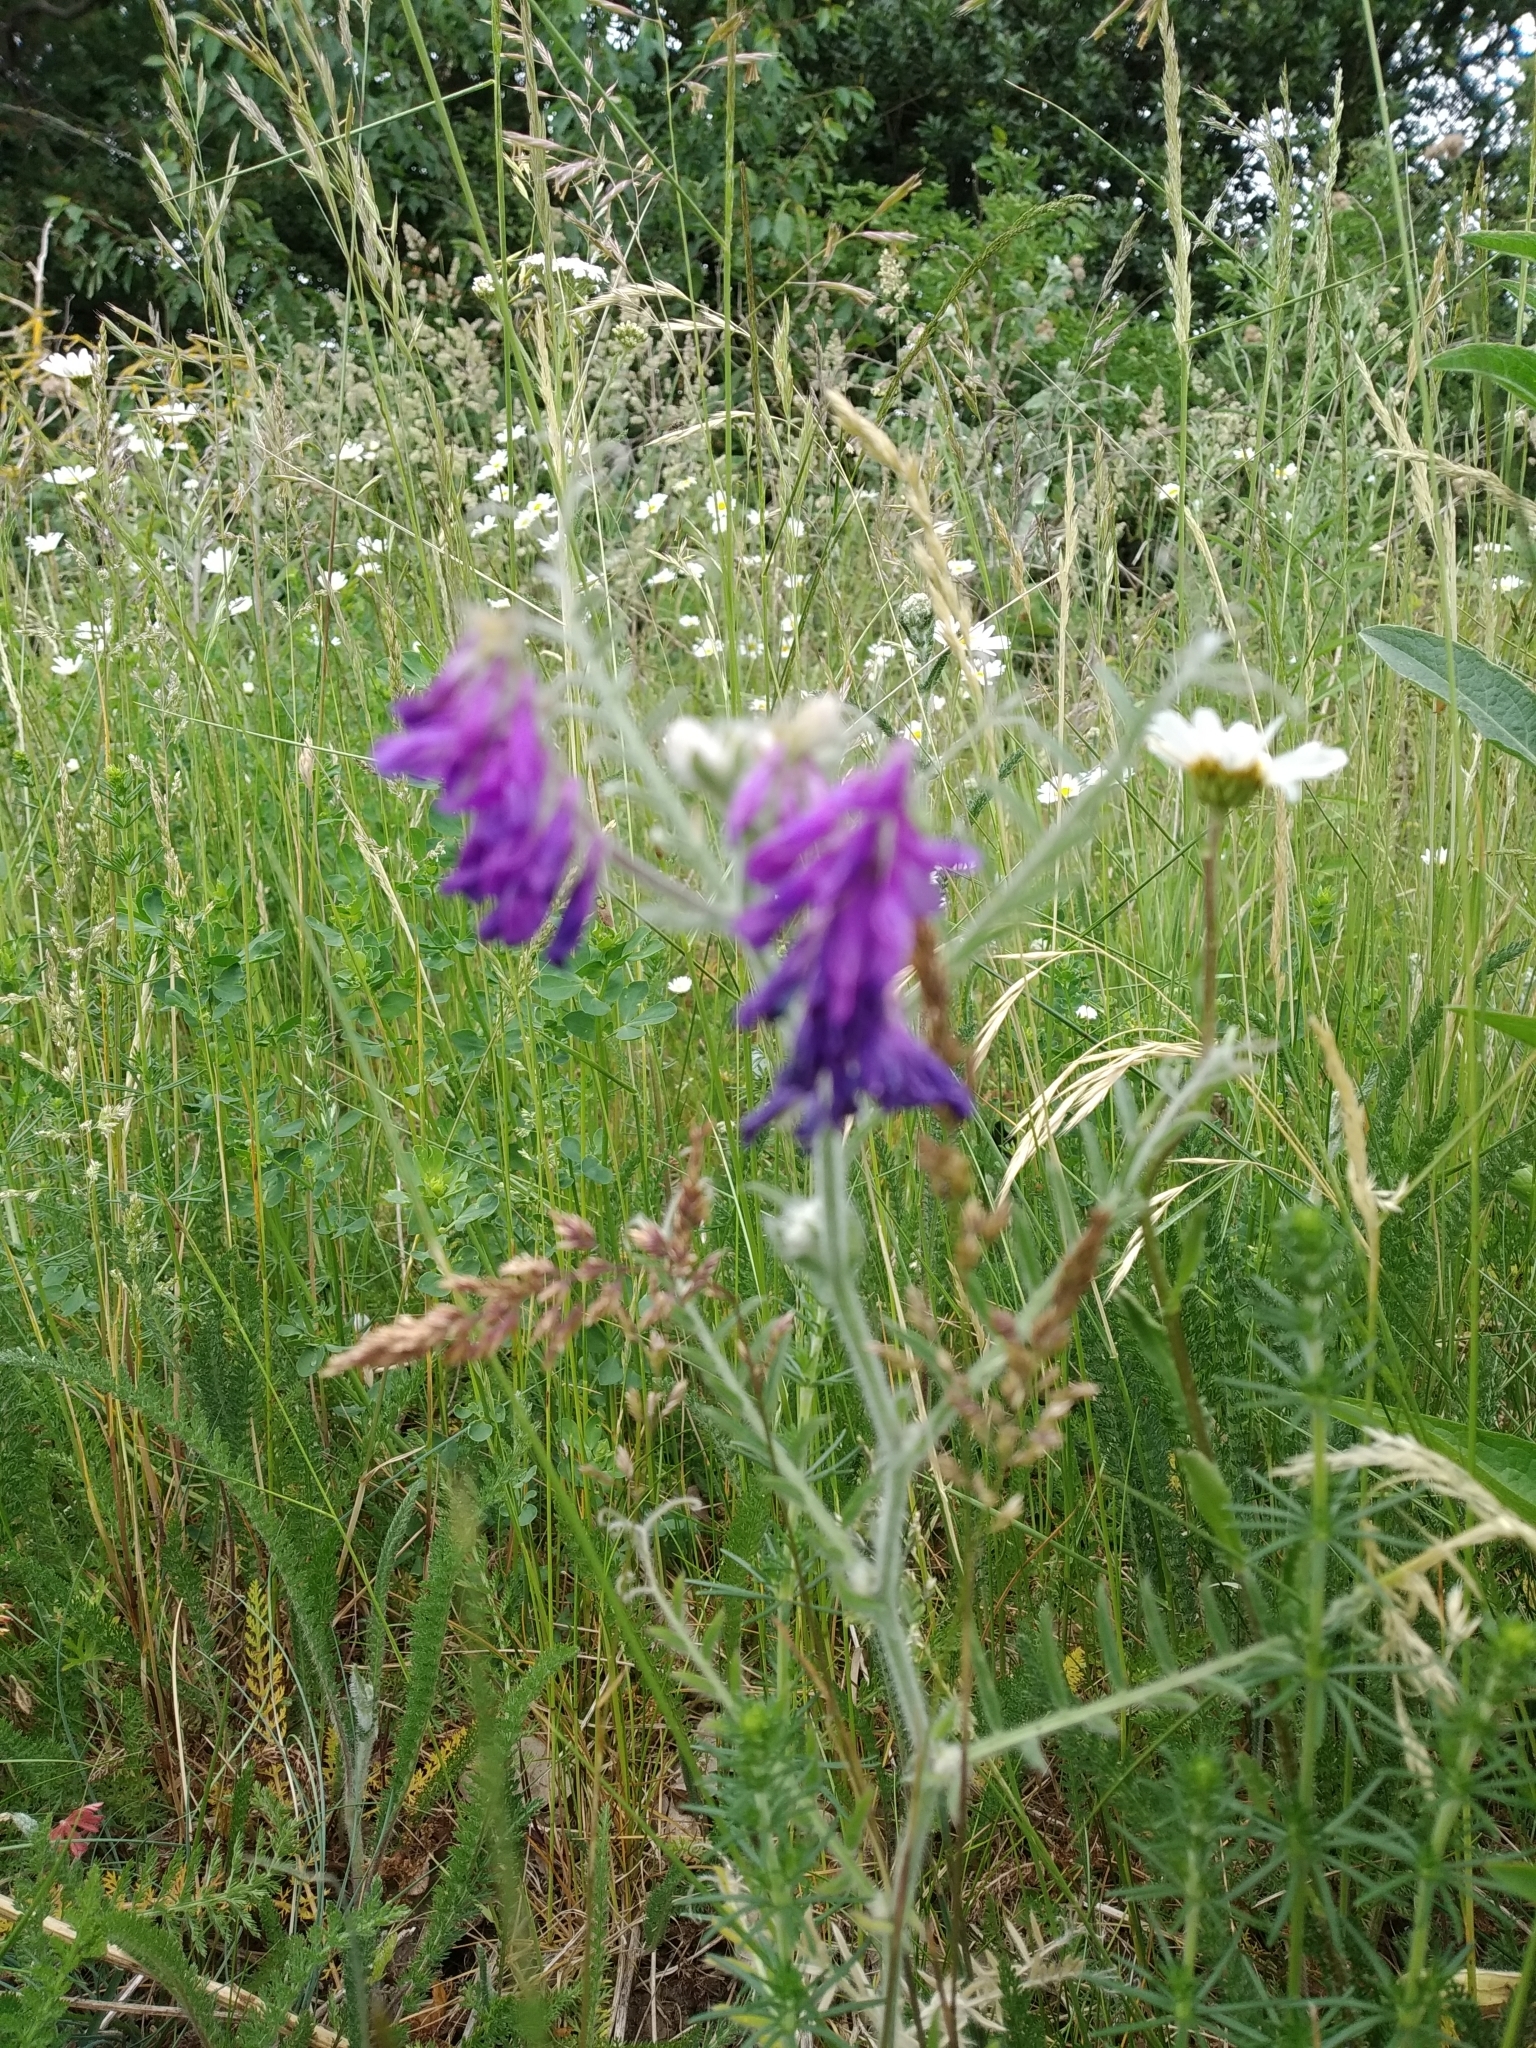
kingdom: Plantae
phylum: Tracheophyta
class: Magnoliopsida
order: Fabales
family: Fabaceae
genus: Vicia
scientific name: Vicia villosa
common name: Fodder vetch
